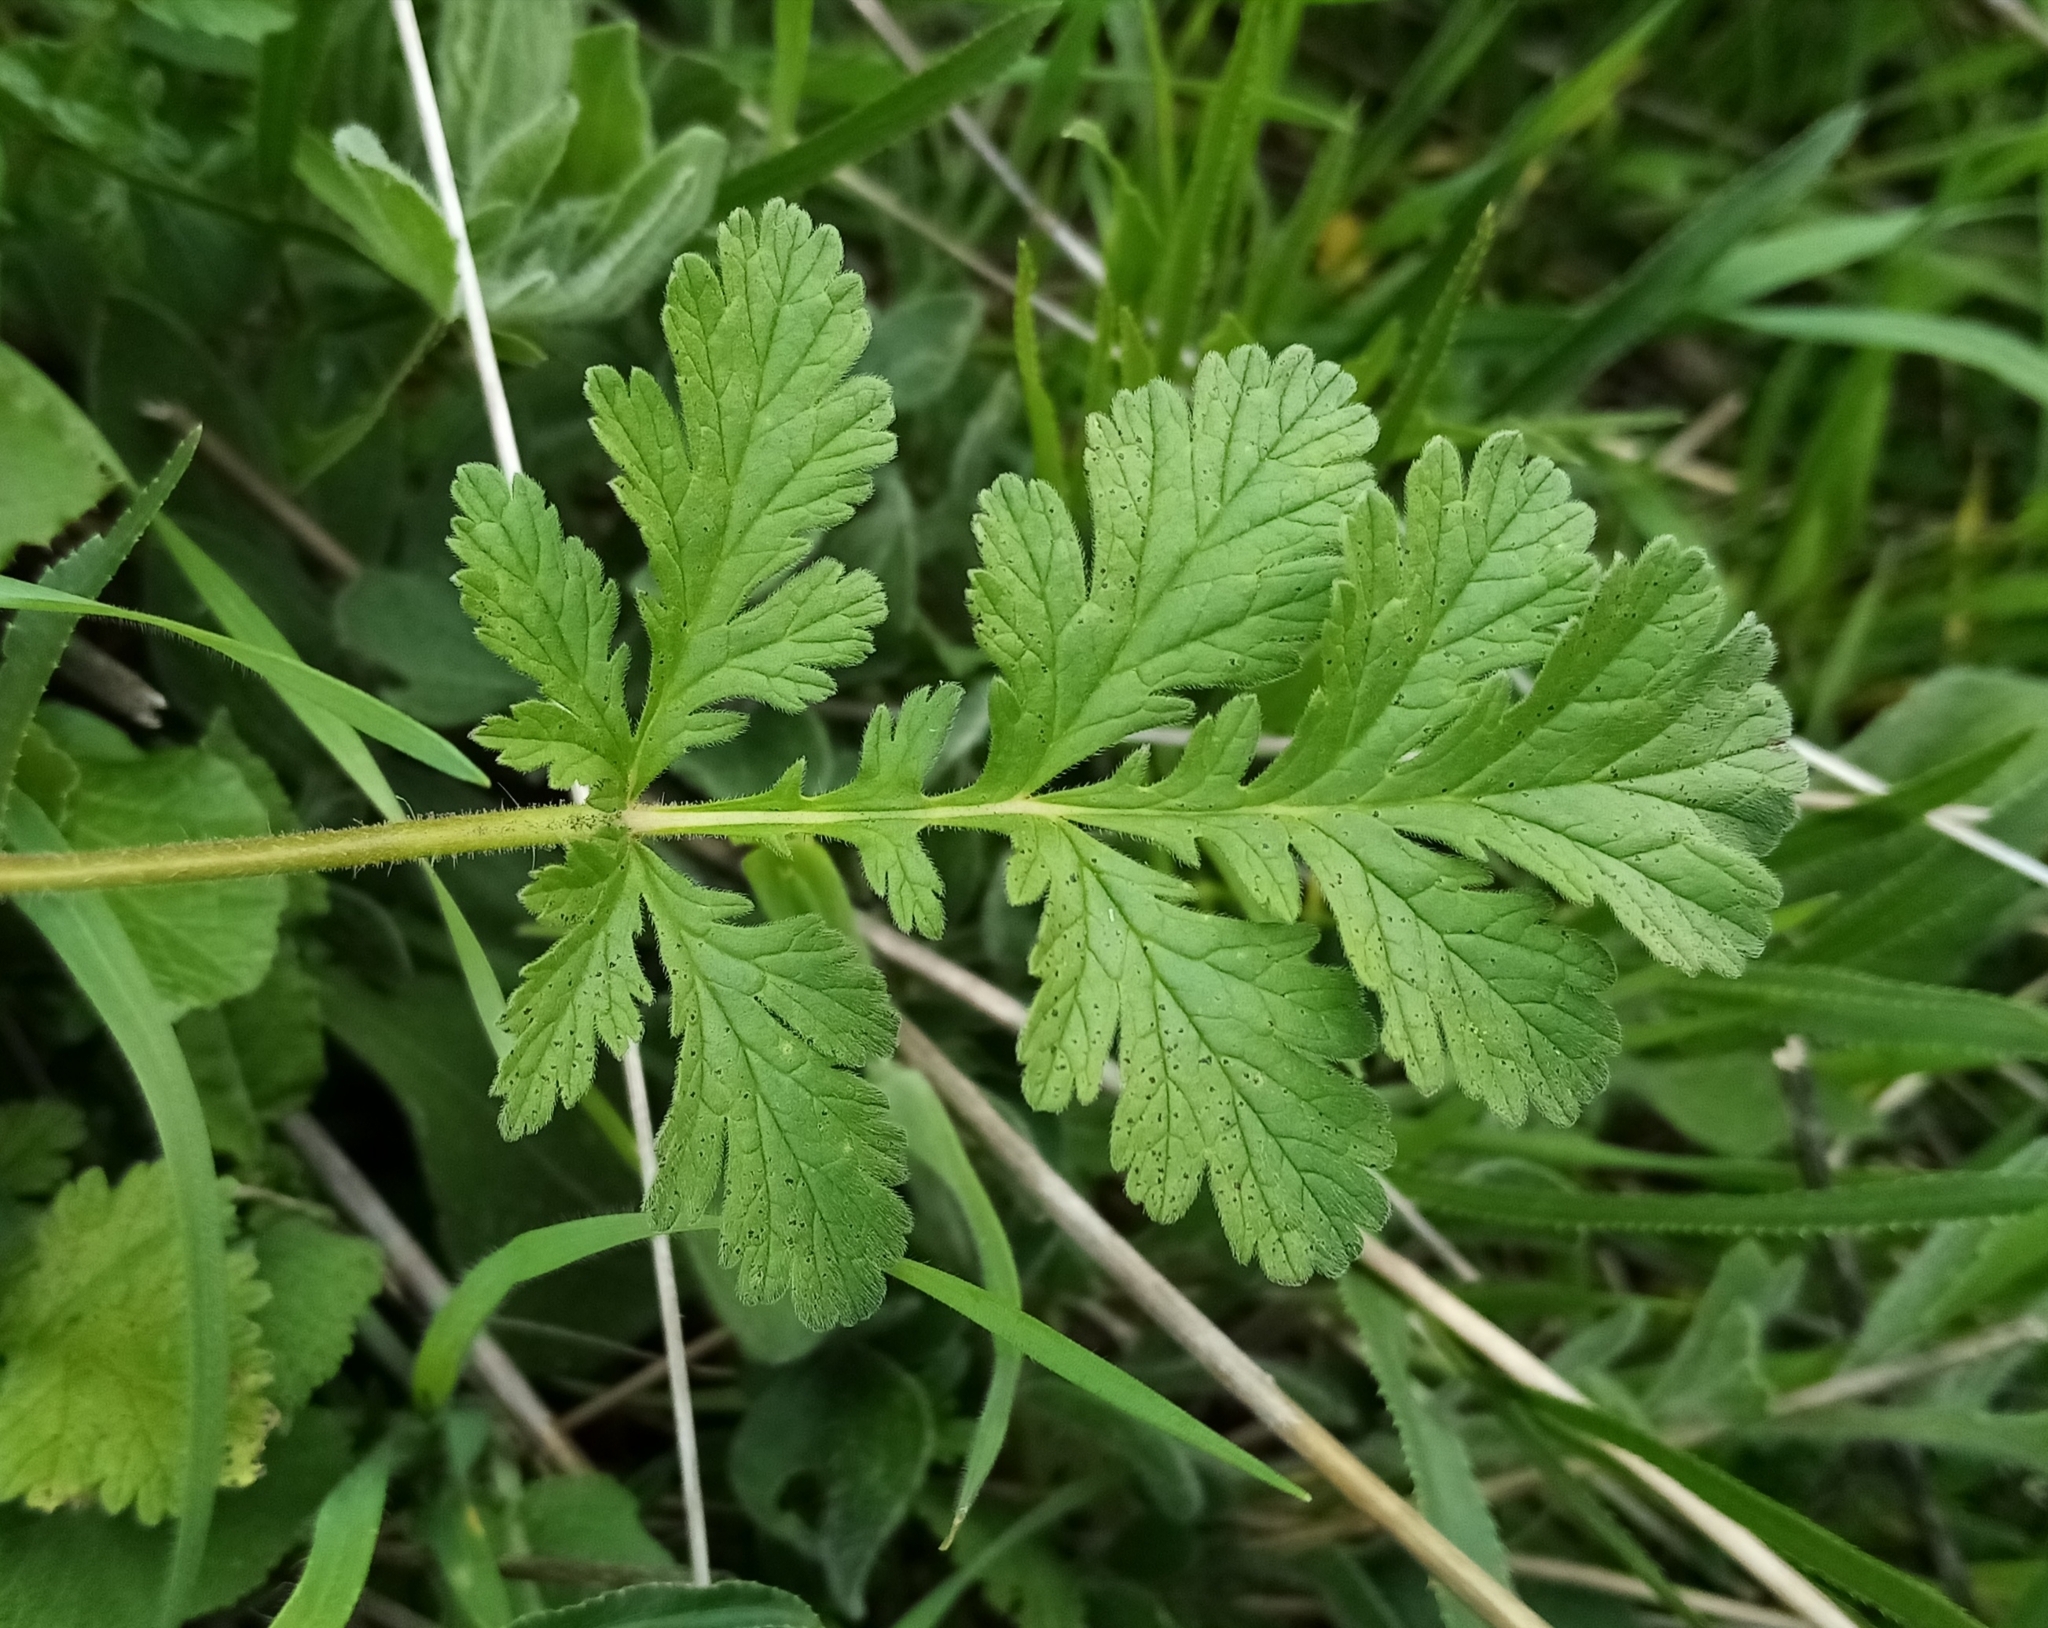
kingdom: Plantae
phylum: Tracheophyta
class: Magnoliopsida
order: Geraniales
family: Geraniaceae
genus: Erodium
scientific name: Erodium ciconium
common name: Common stork's bill
